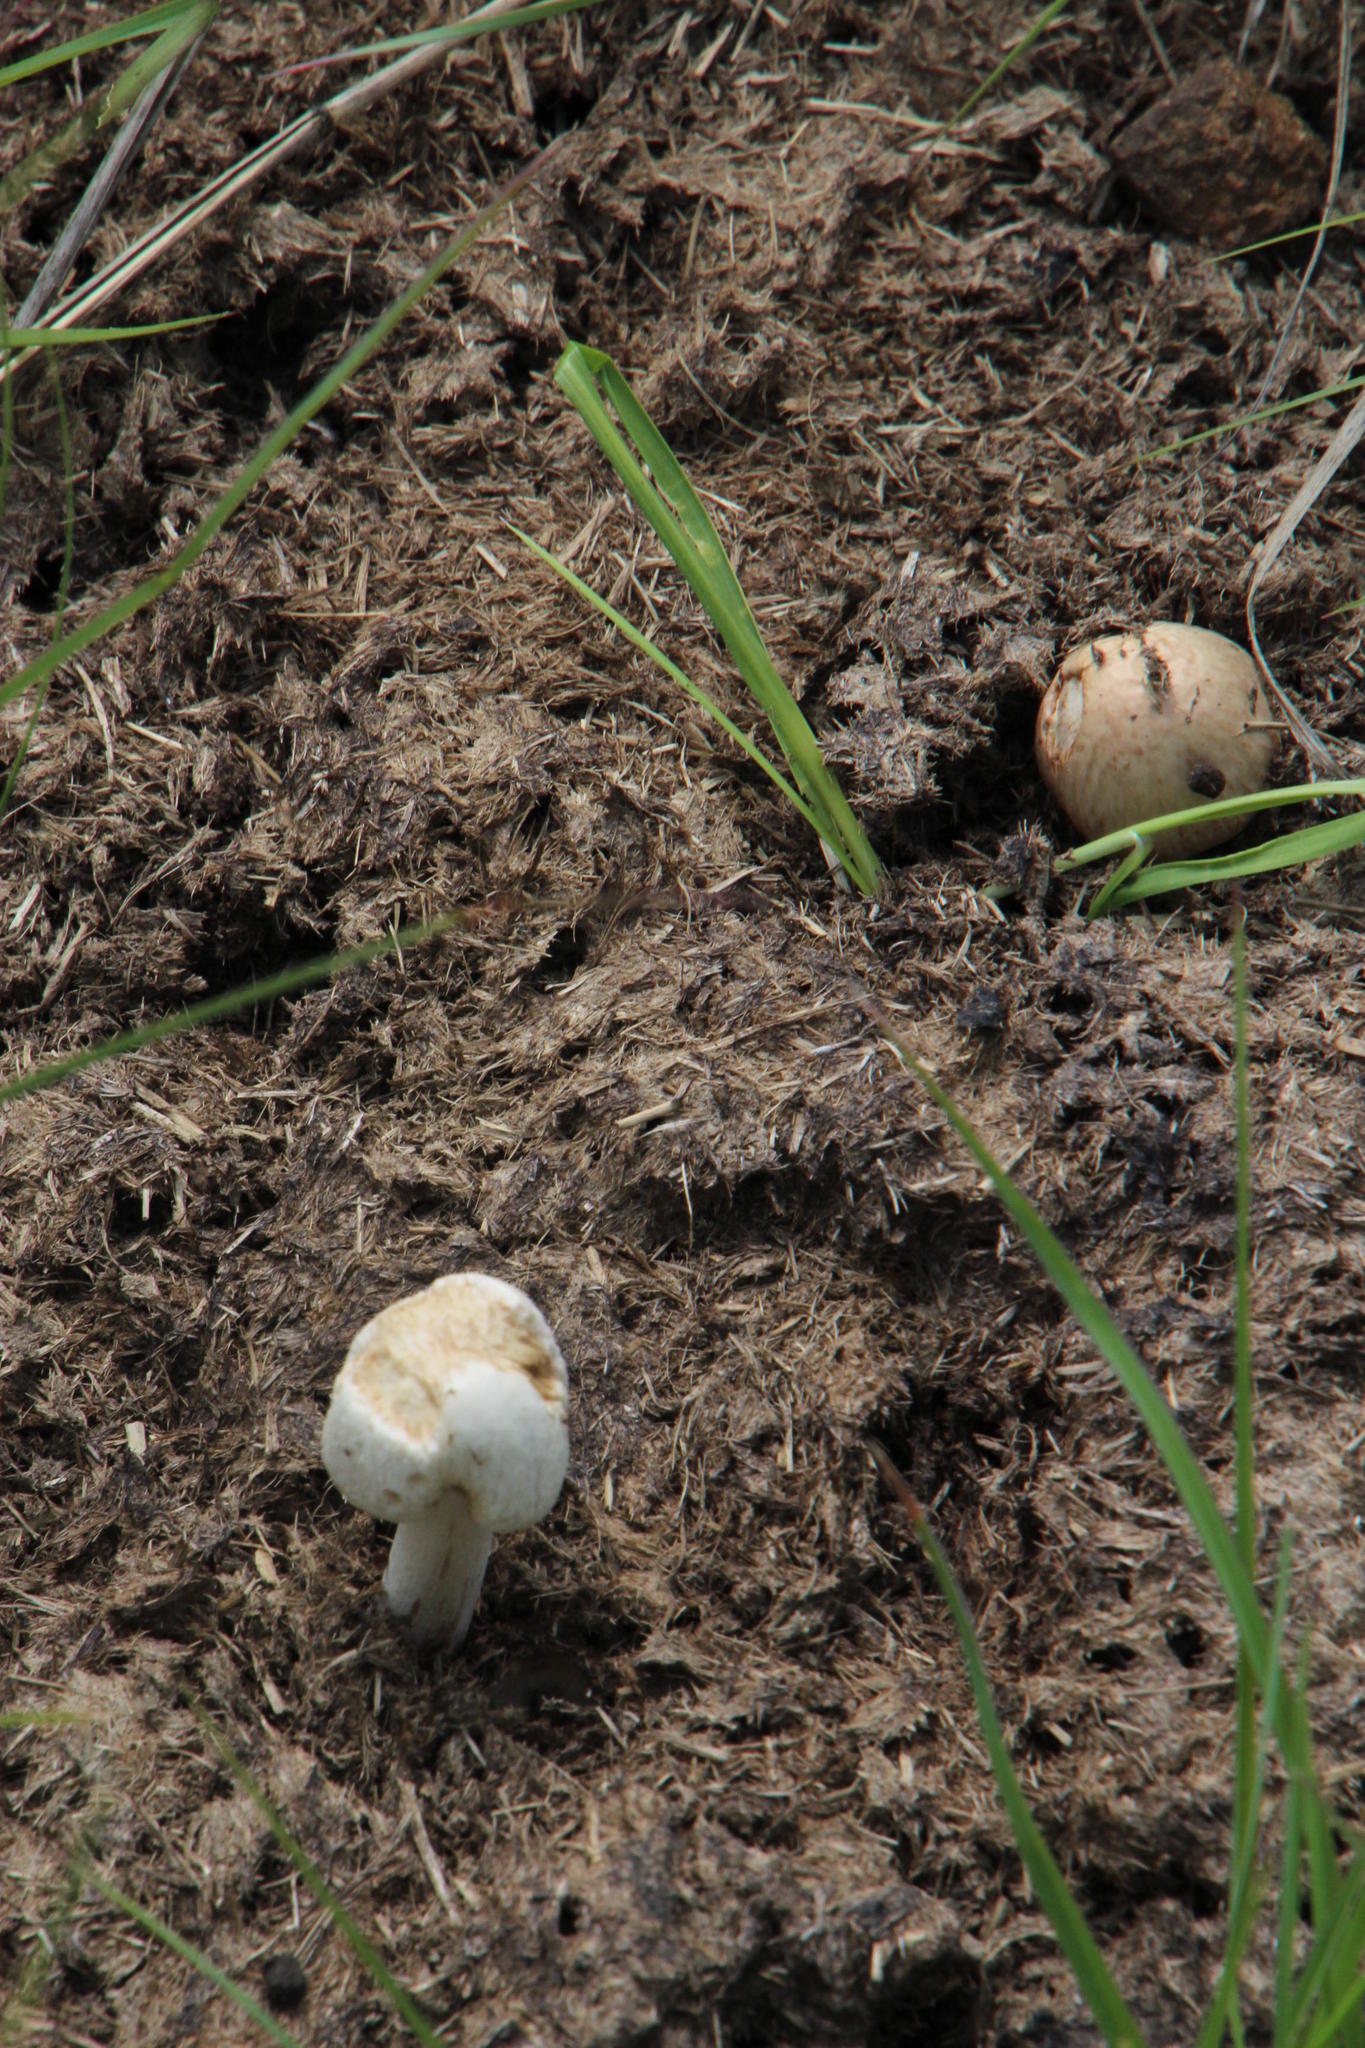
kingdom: Animalia
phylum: Chordata
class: Mammalia
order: Artiodactyla
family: Bovidae
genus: Bos
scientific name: Bos taurus
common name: Domesticated cattle
